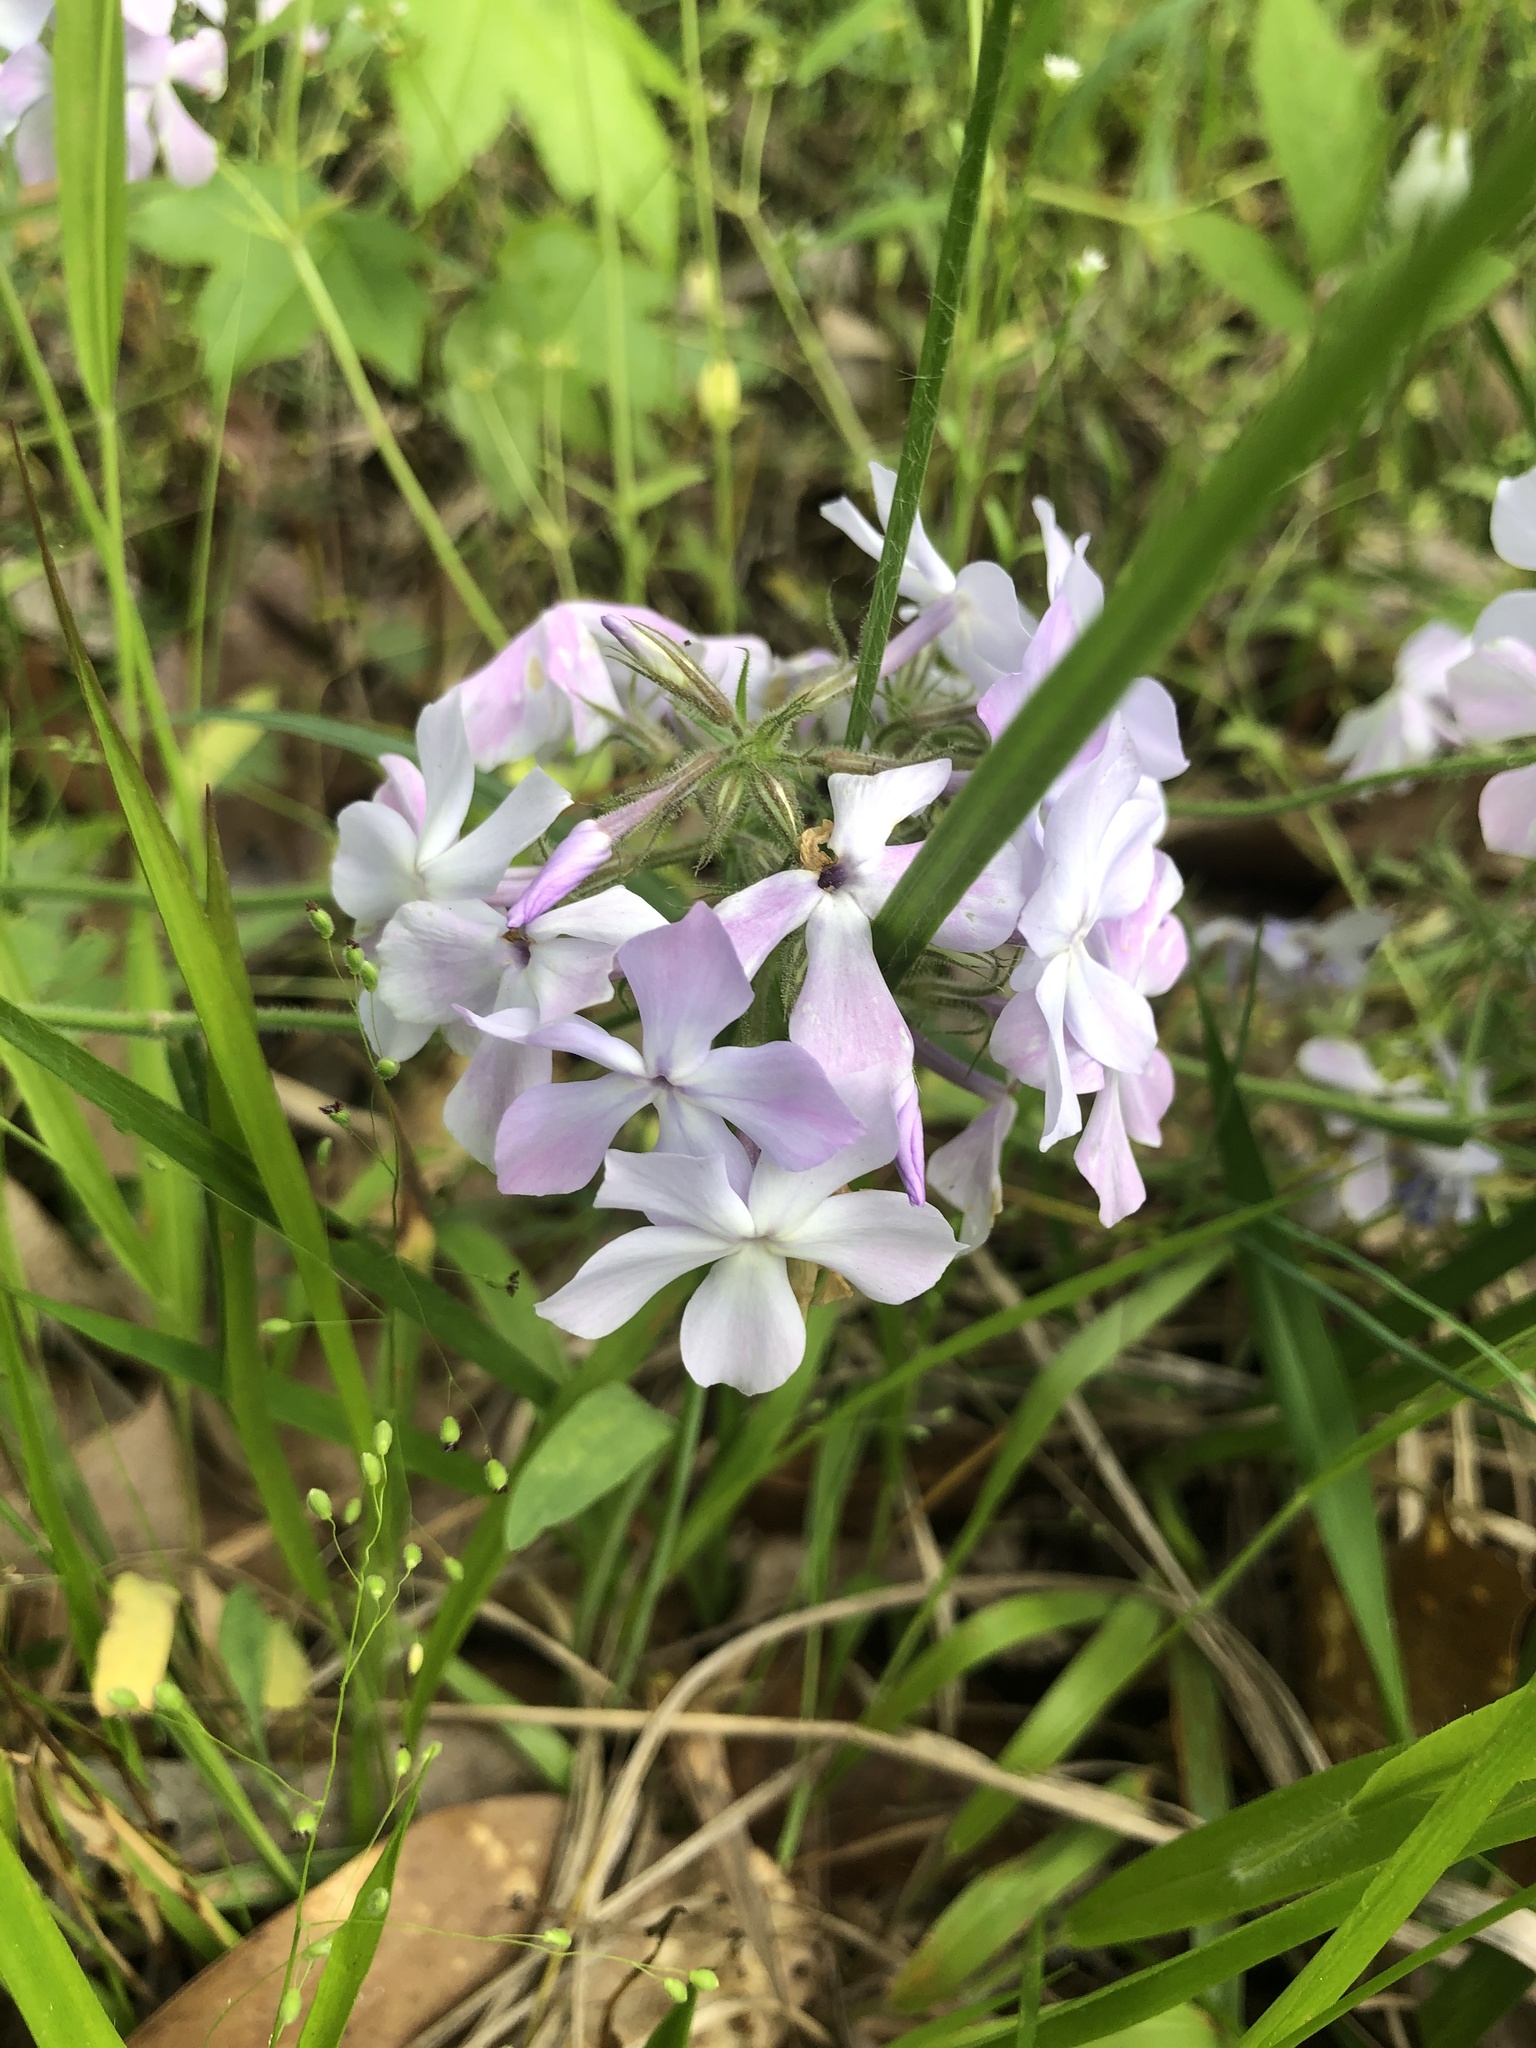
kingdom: Plantae
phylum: Tracheophyta
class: Magnoliopsida
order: Ericales
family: Polemoniaceae
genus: Phlox
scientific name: Phlox pilosa
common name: Prairie phlox
